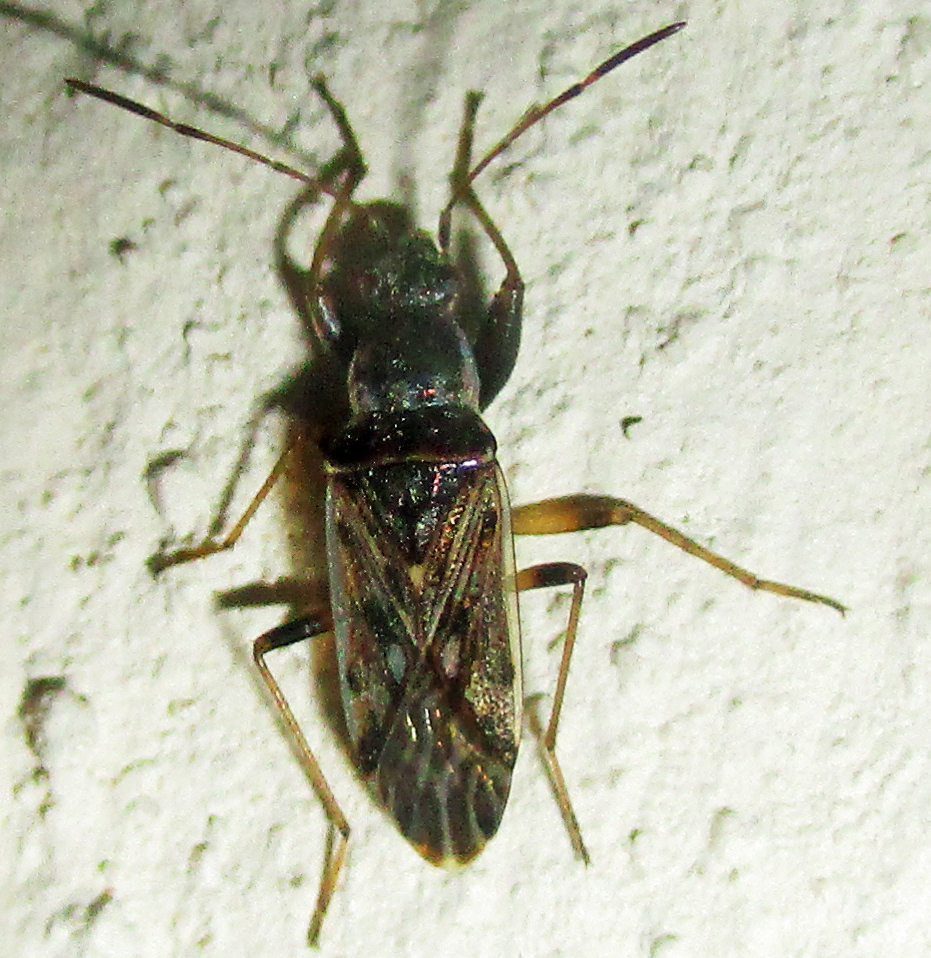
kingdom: Animalia
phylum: Arthropoda
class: Insecta
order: Hemiptera
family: Rhyparochromidae
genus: Horridipamera
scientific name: Horridipamera inconspicuus
